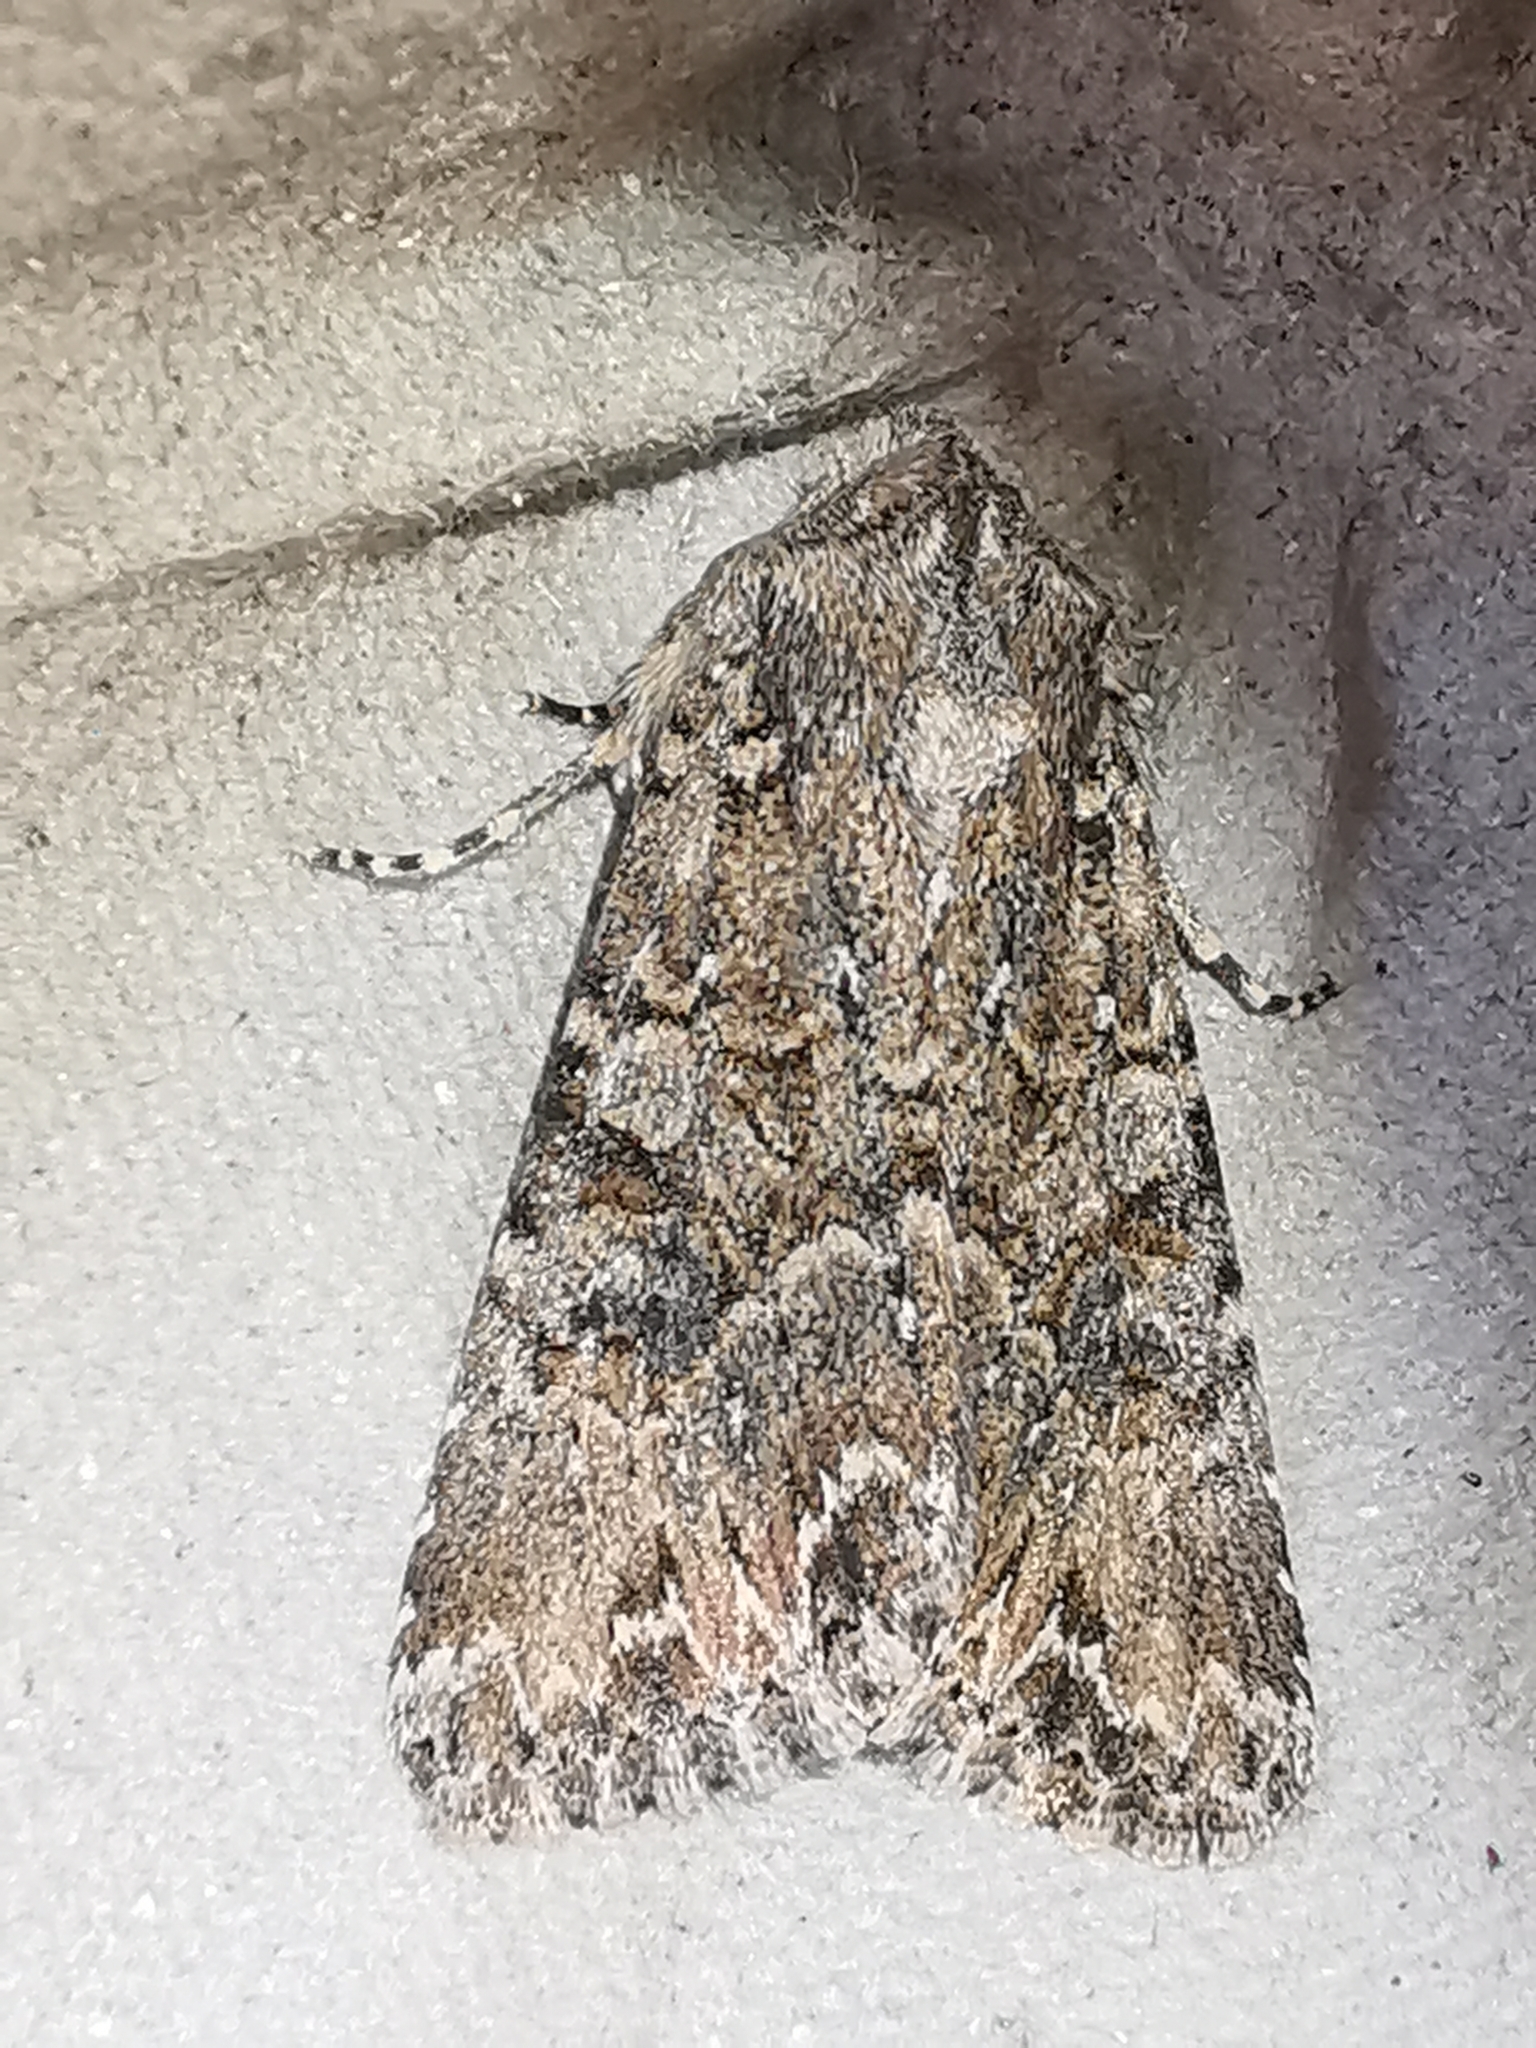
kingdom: Animalia
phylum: Arthropoda
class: Insecta
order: Lepidoptera
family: Noctuidae
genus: Anarta
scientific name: Anarta trifolii
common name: Clover cutworm moth
